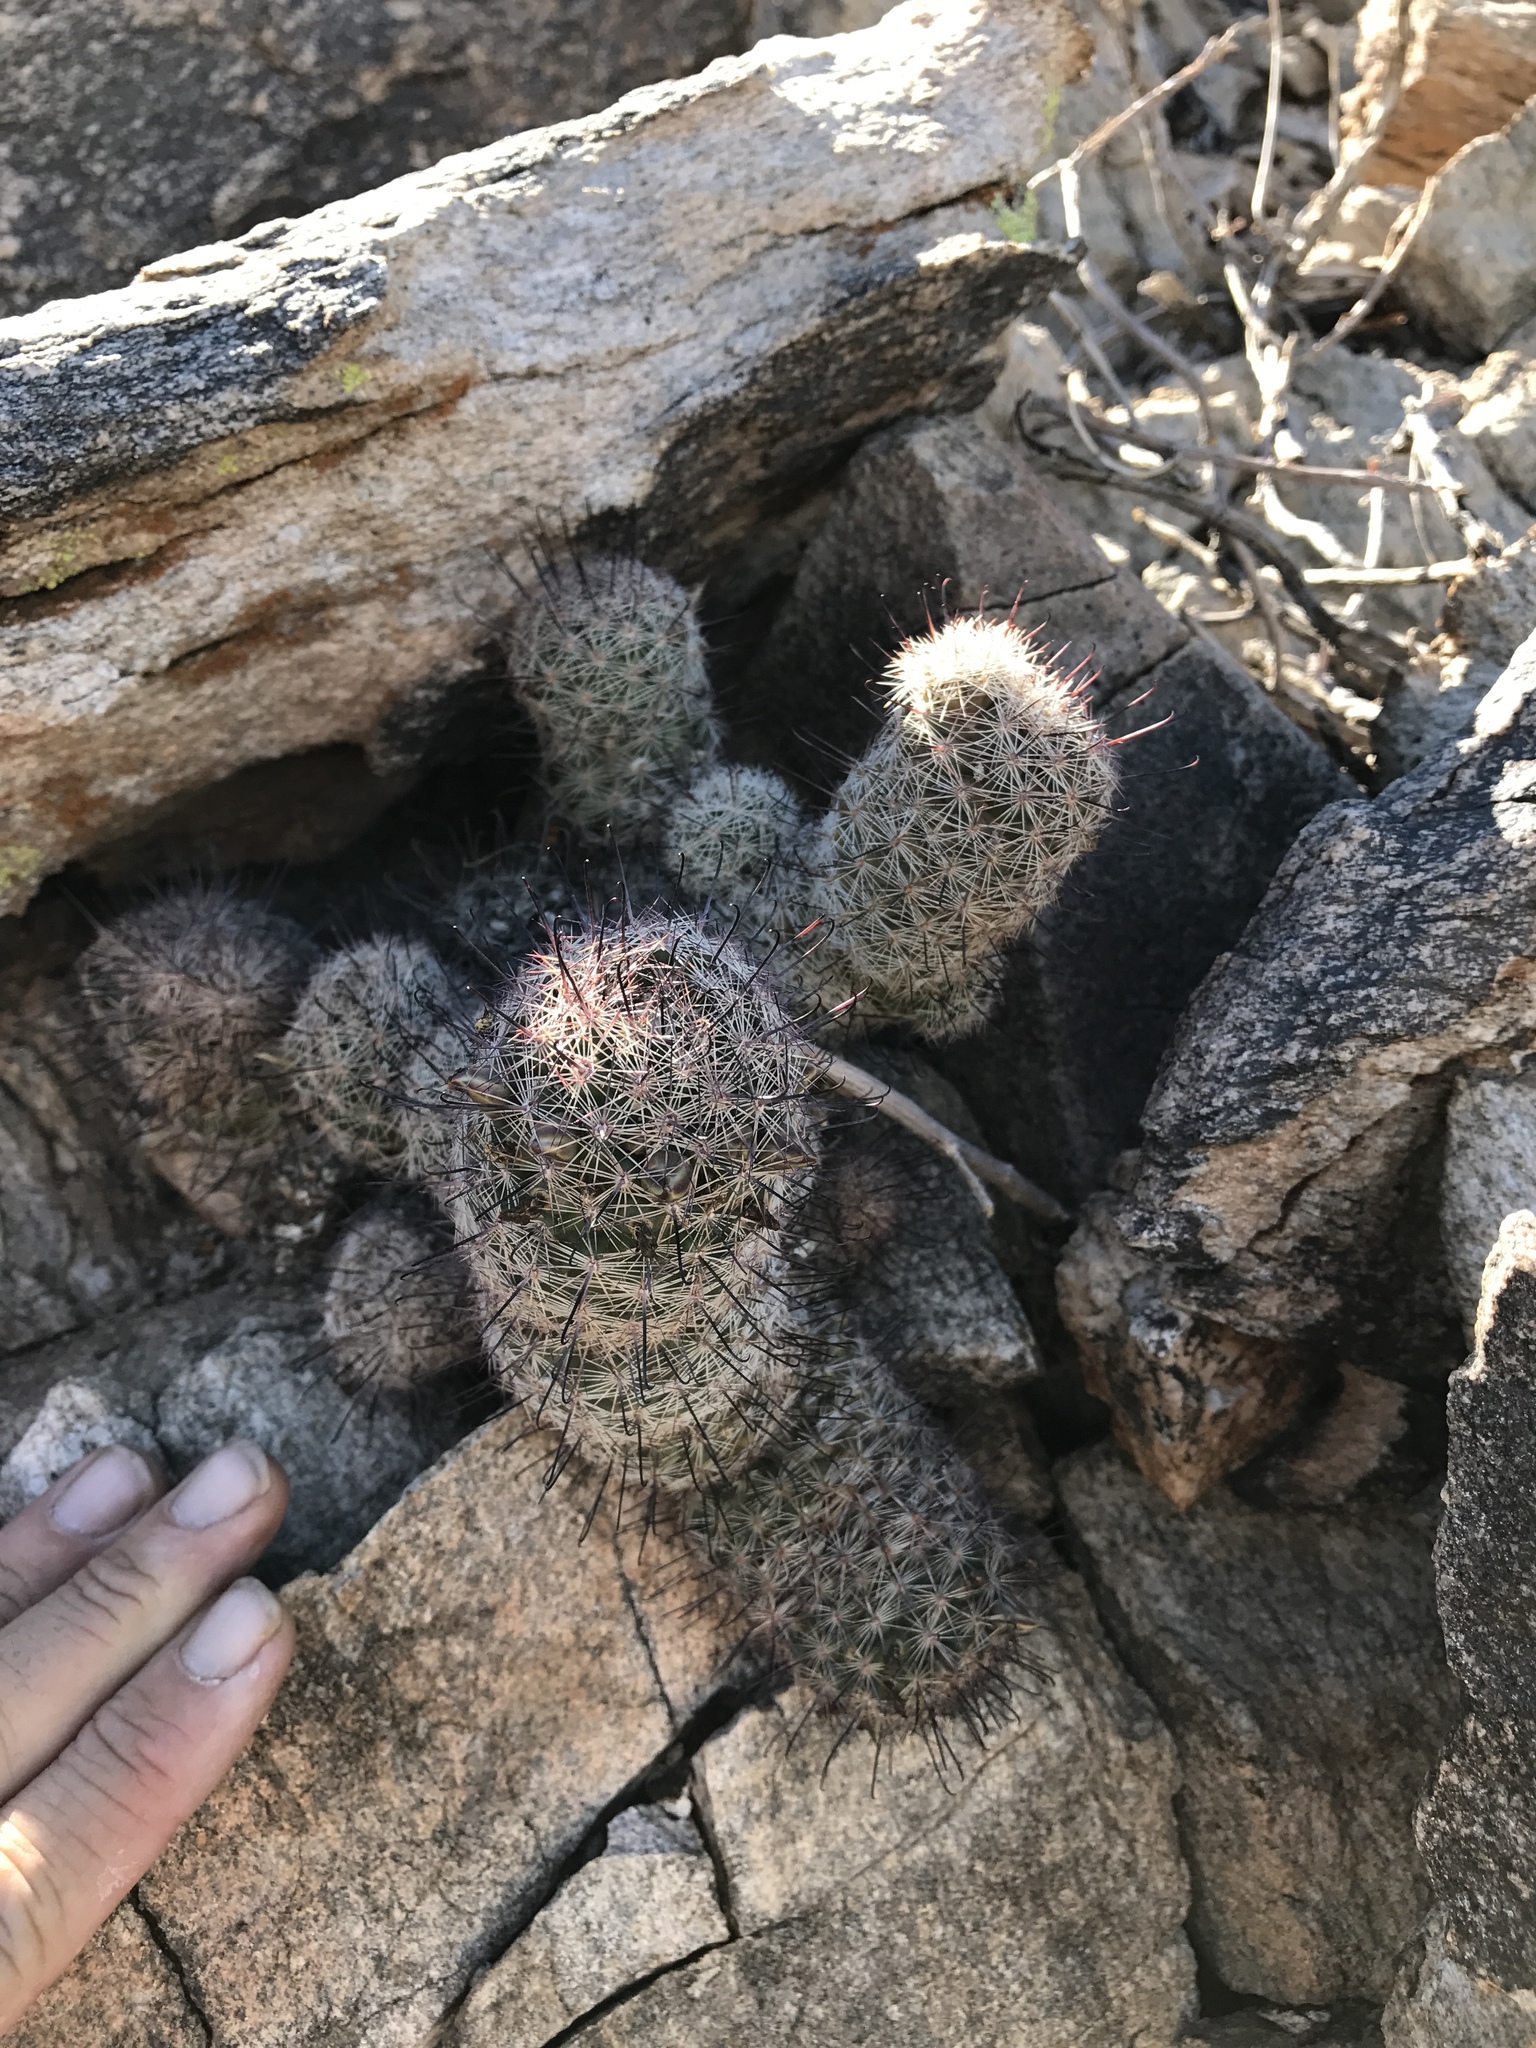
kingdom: Plantae
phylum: Tracheophyta
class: Magnoliopsida
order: Caryophyllales
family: Cactaceae
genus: Cochemiea
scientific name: Cochemiea grahamii
